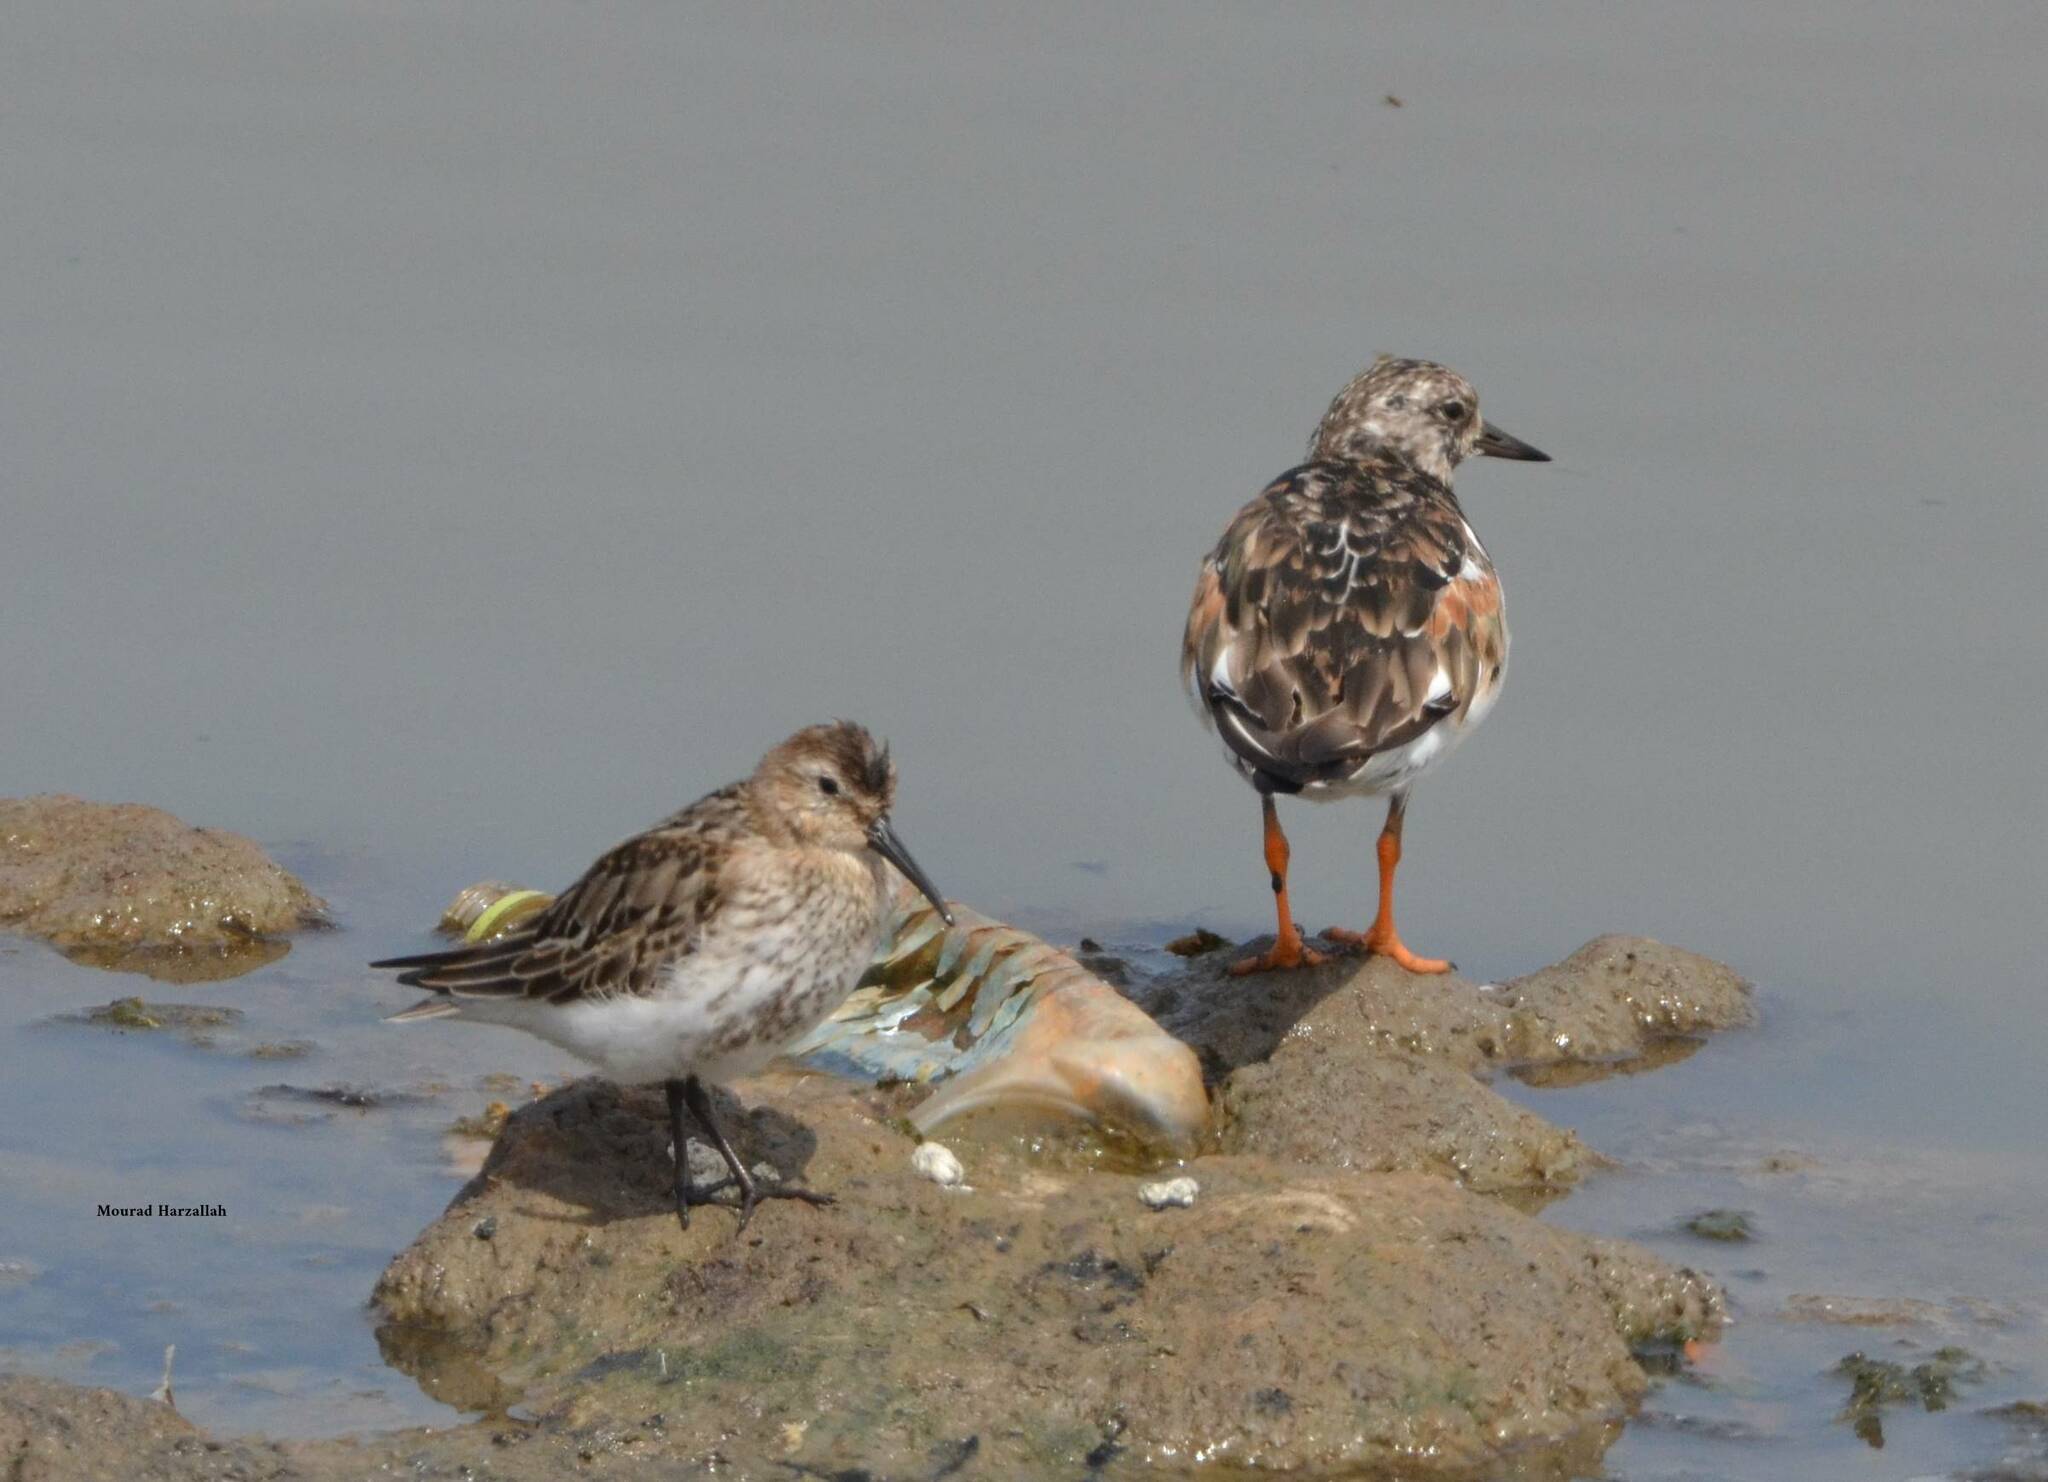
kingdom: Animalia
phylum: Chordata
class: Aves
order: Charadriiformes
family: Scolopacidae
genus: Calidris
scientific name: Calidris alpina
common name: Dunlin
